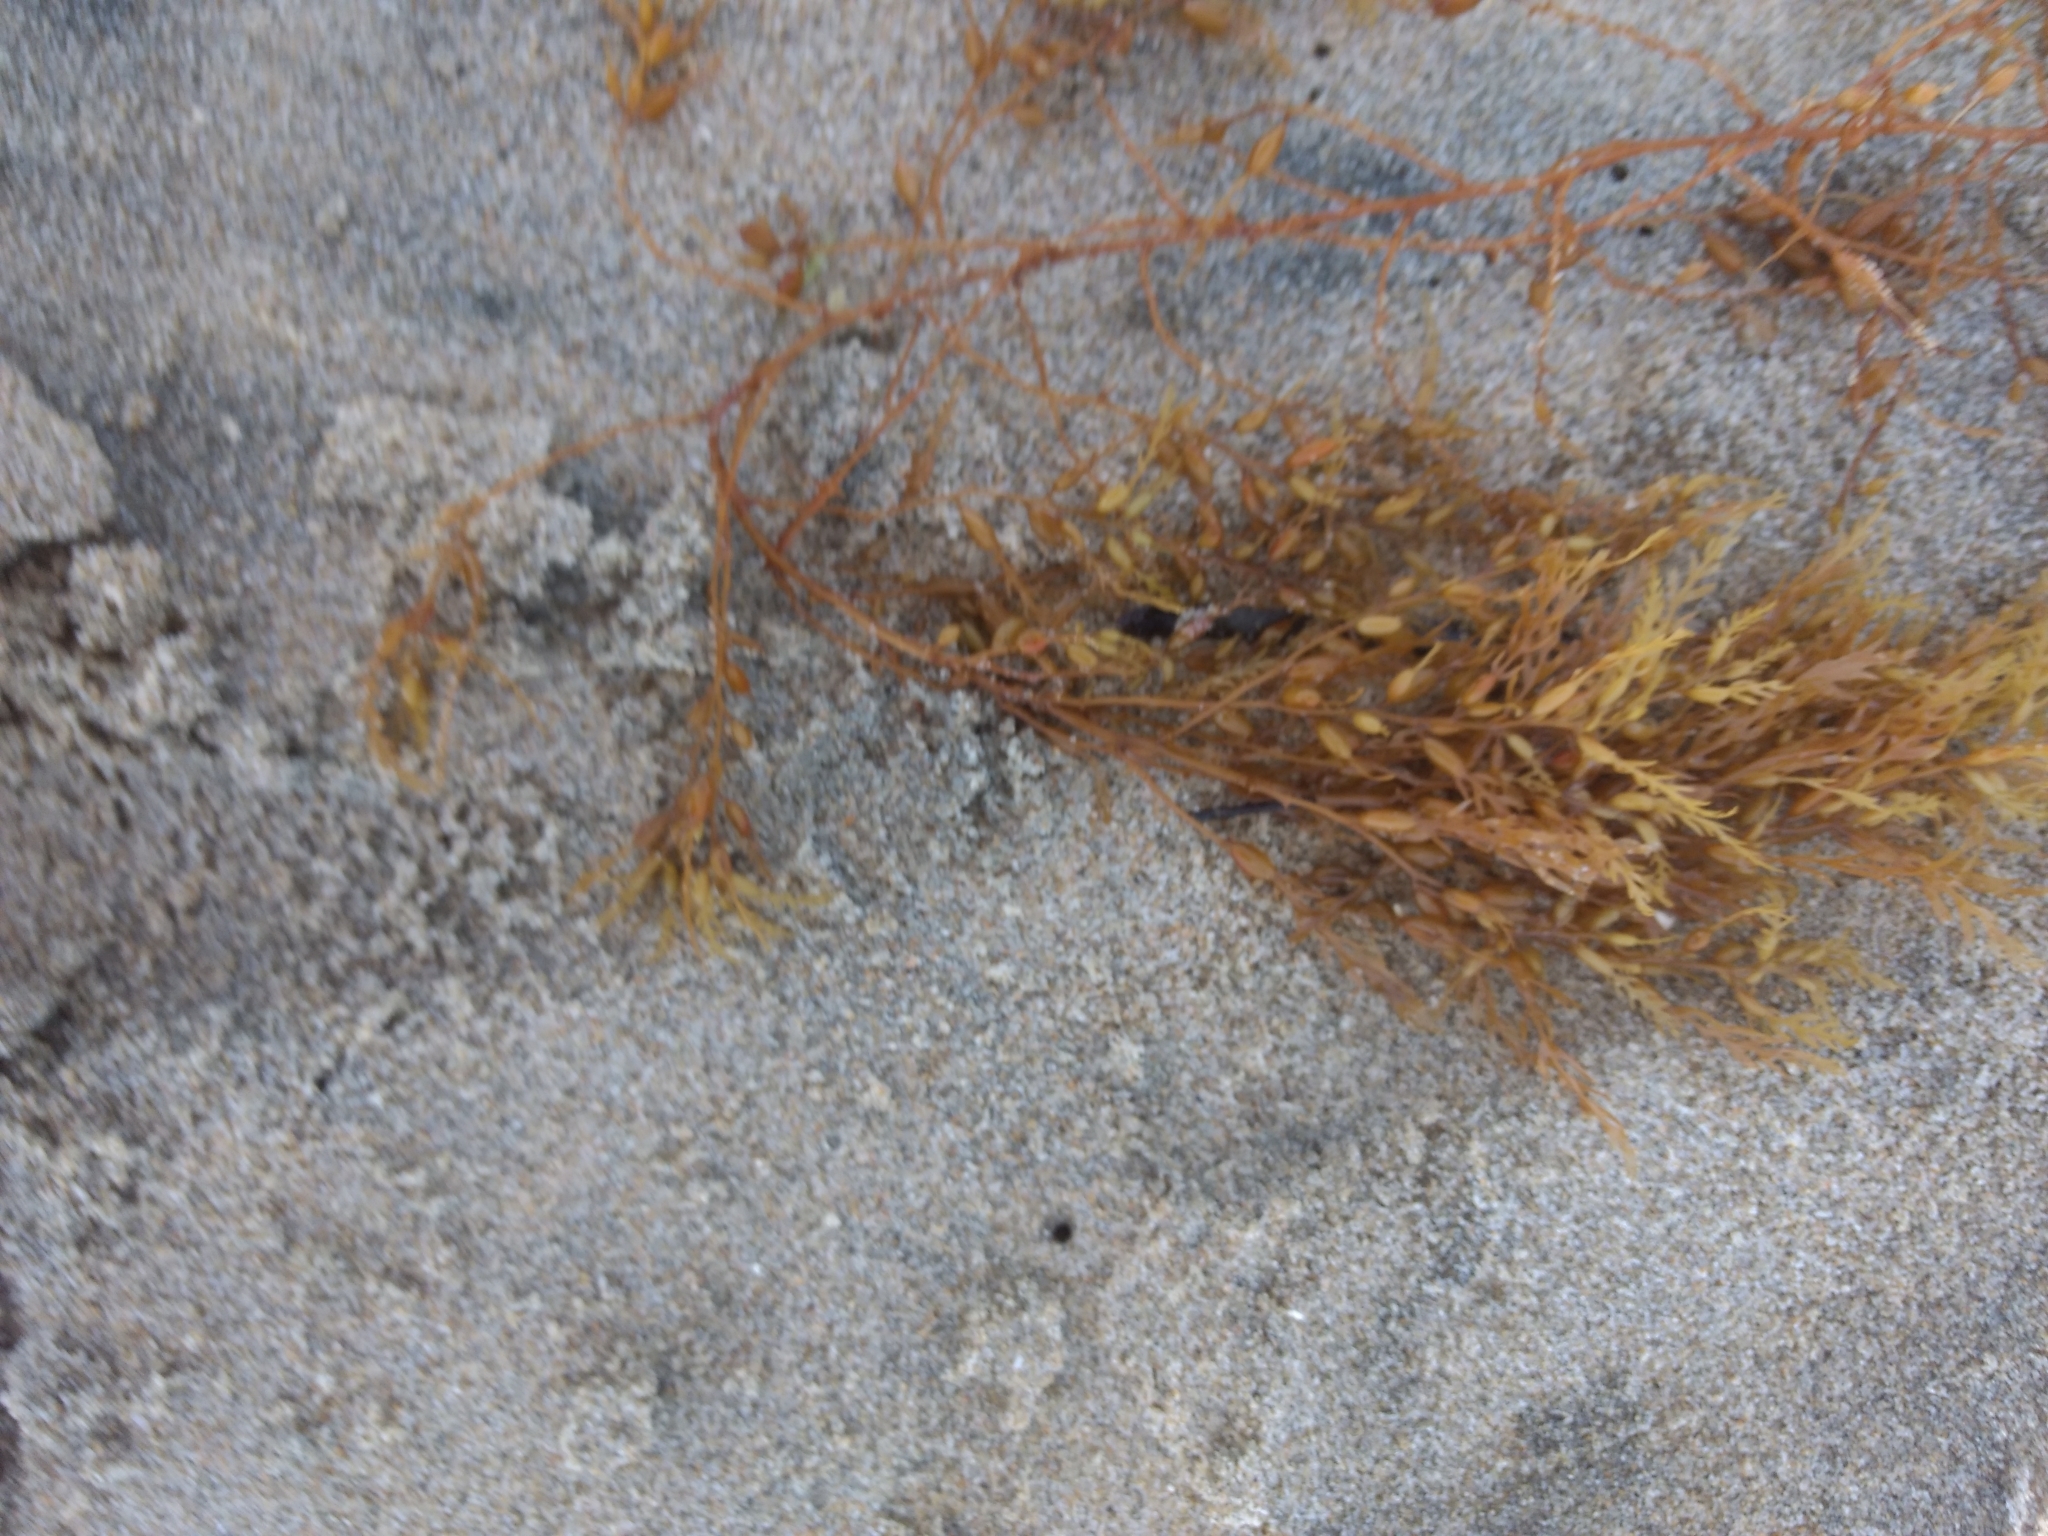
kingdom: Chromista
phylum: Ochrophyta
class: Phaeophyceae
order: Fucales
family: Sargassaceae
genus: Sargassum
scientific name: Sargassum horneri
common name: Devil weed
